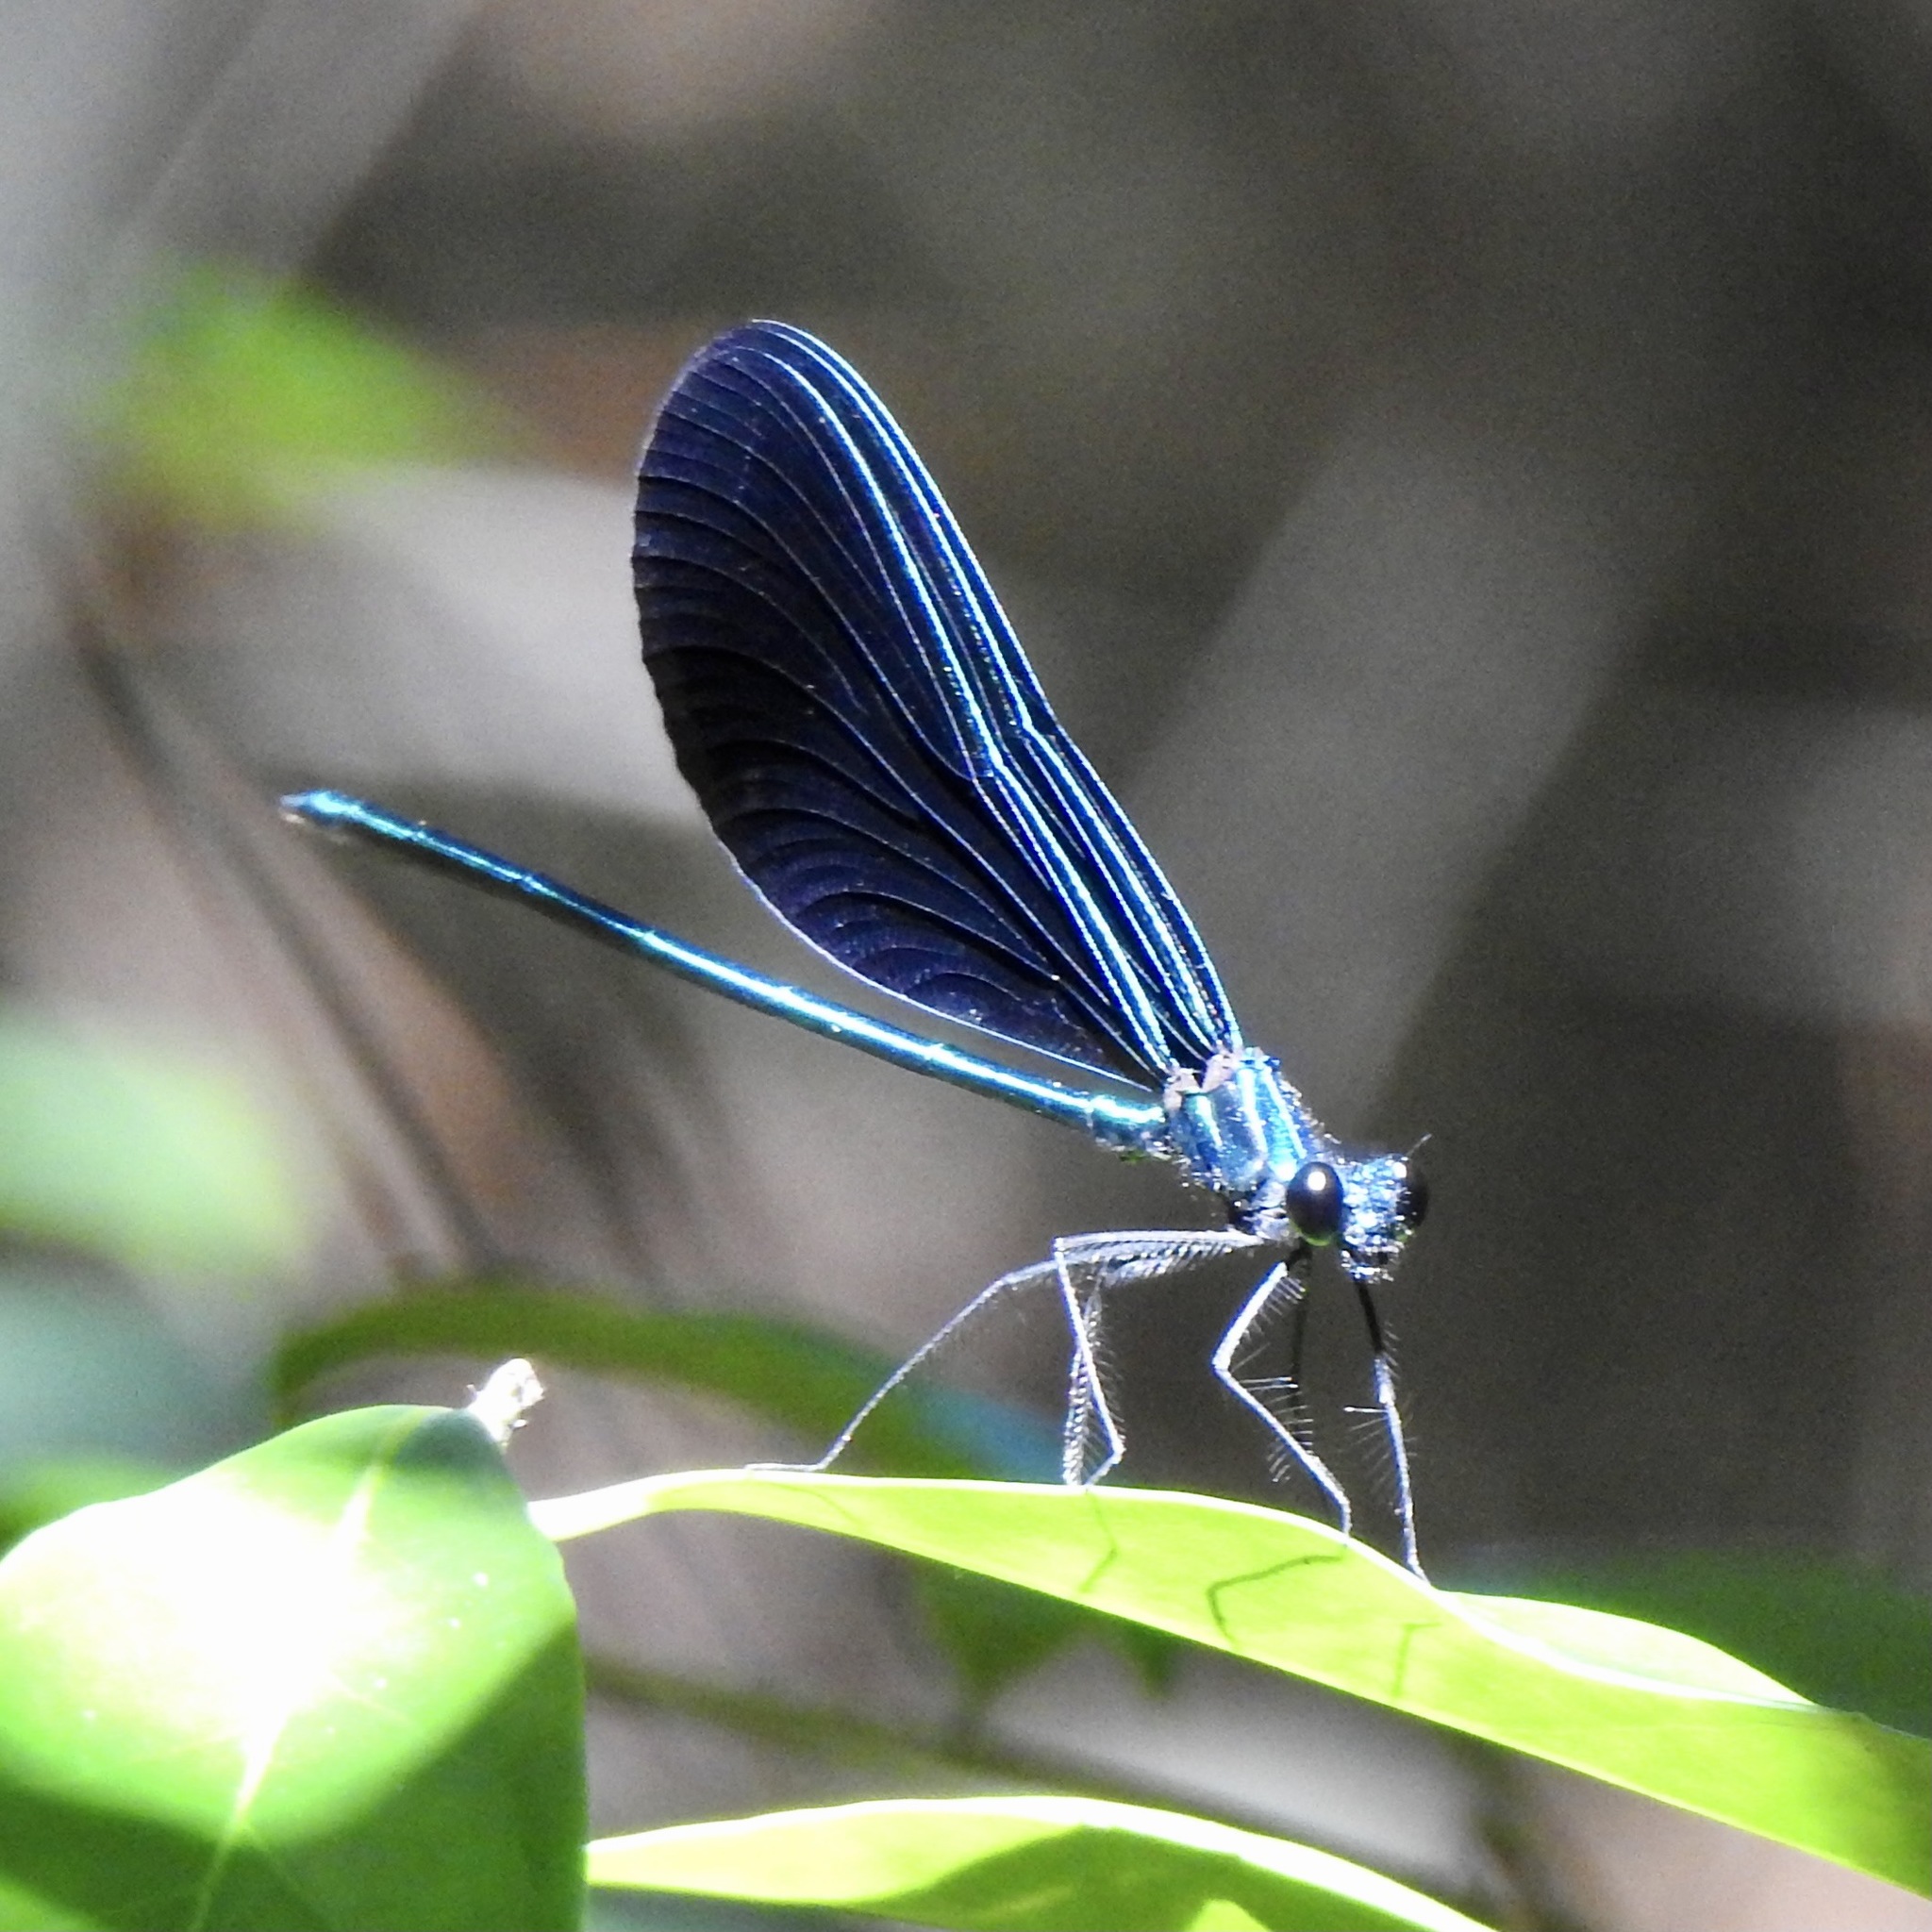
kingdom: Animalia
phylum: Arthropoda
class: Insecta
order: Odonata
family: Calopterygidae
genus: Calopteryx
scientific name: Calopteryx maculata
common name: Ebony jewelwing
